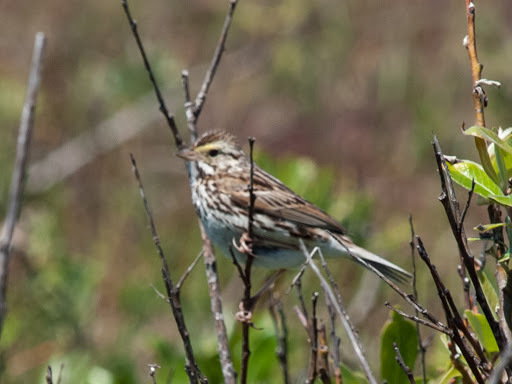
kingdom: Animalia
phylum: Chordata
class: Aves
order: Passeriformes
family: Passerellidae
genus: Passerculus
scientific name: Passerculus sandwichensis
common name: Savannah sparrow
